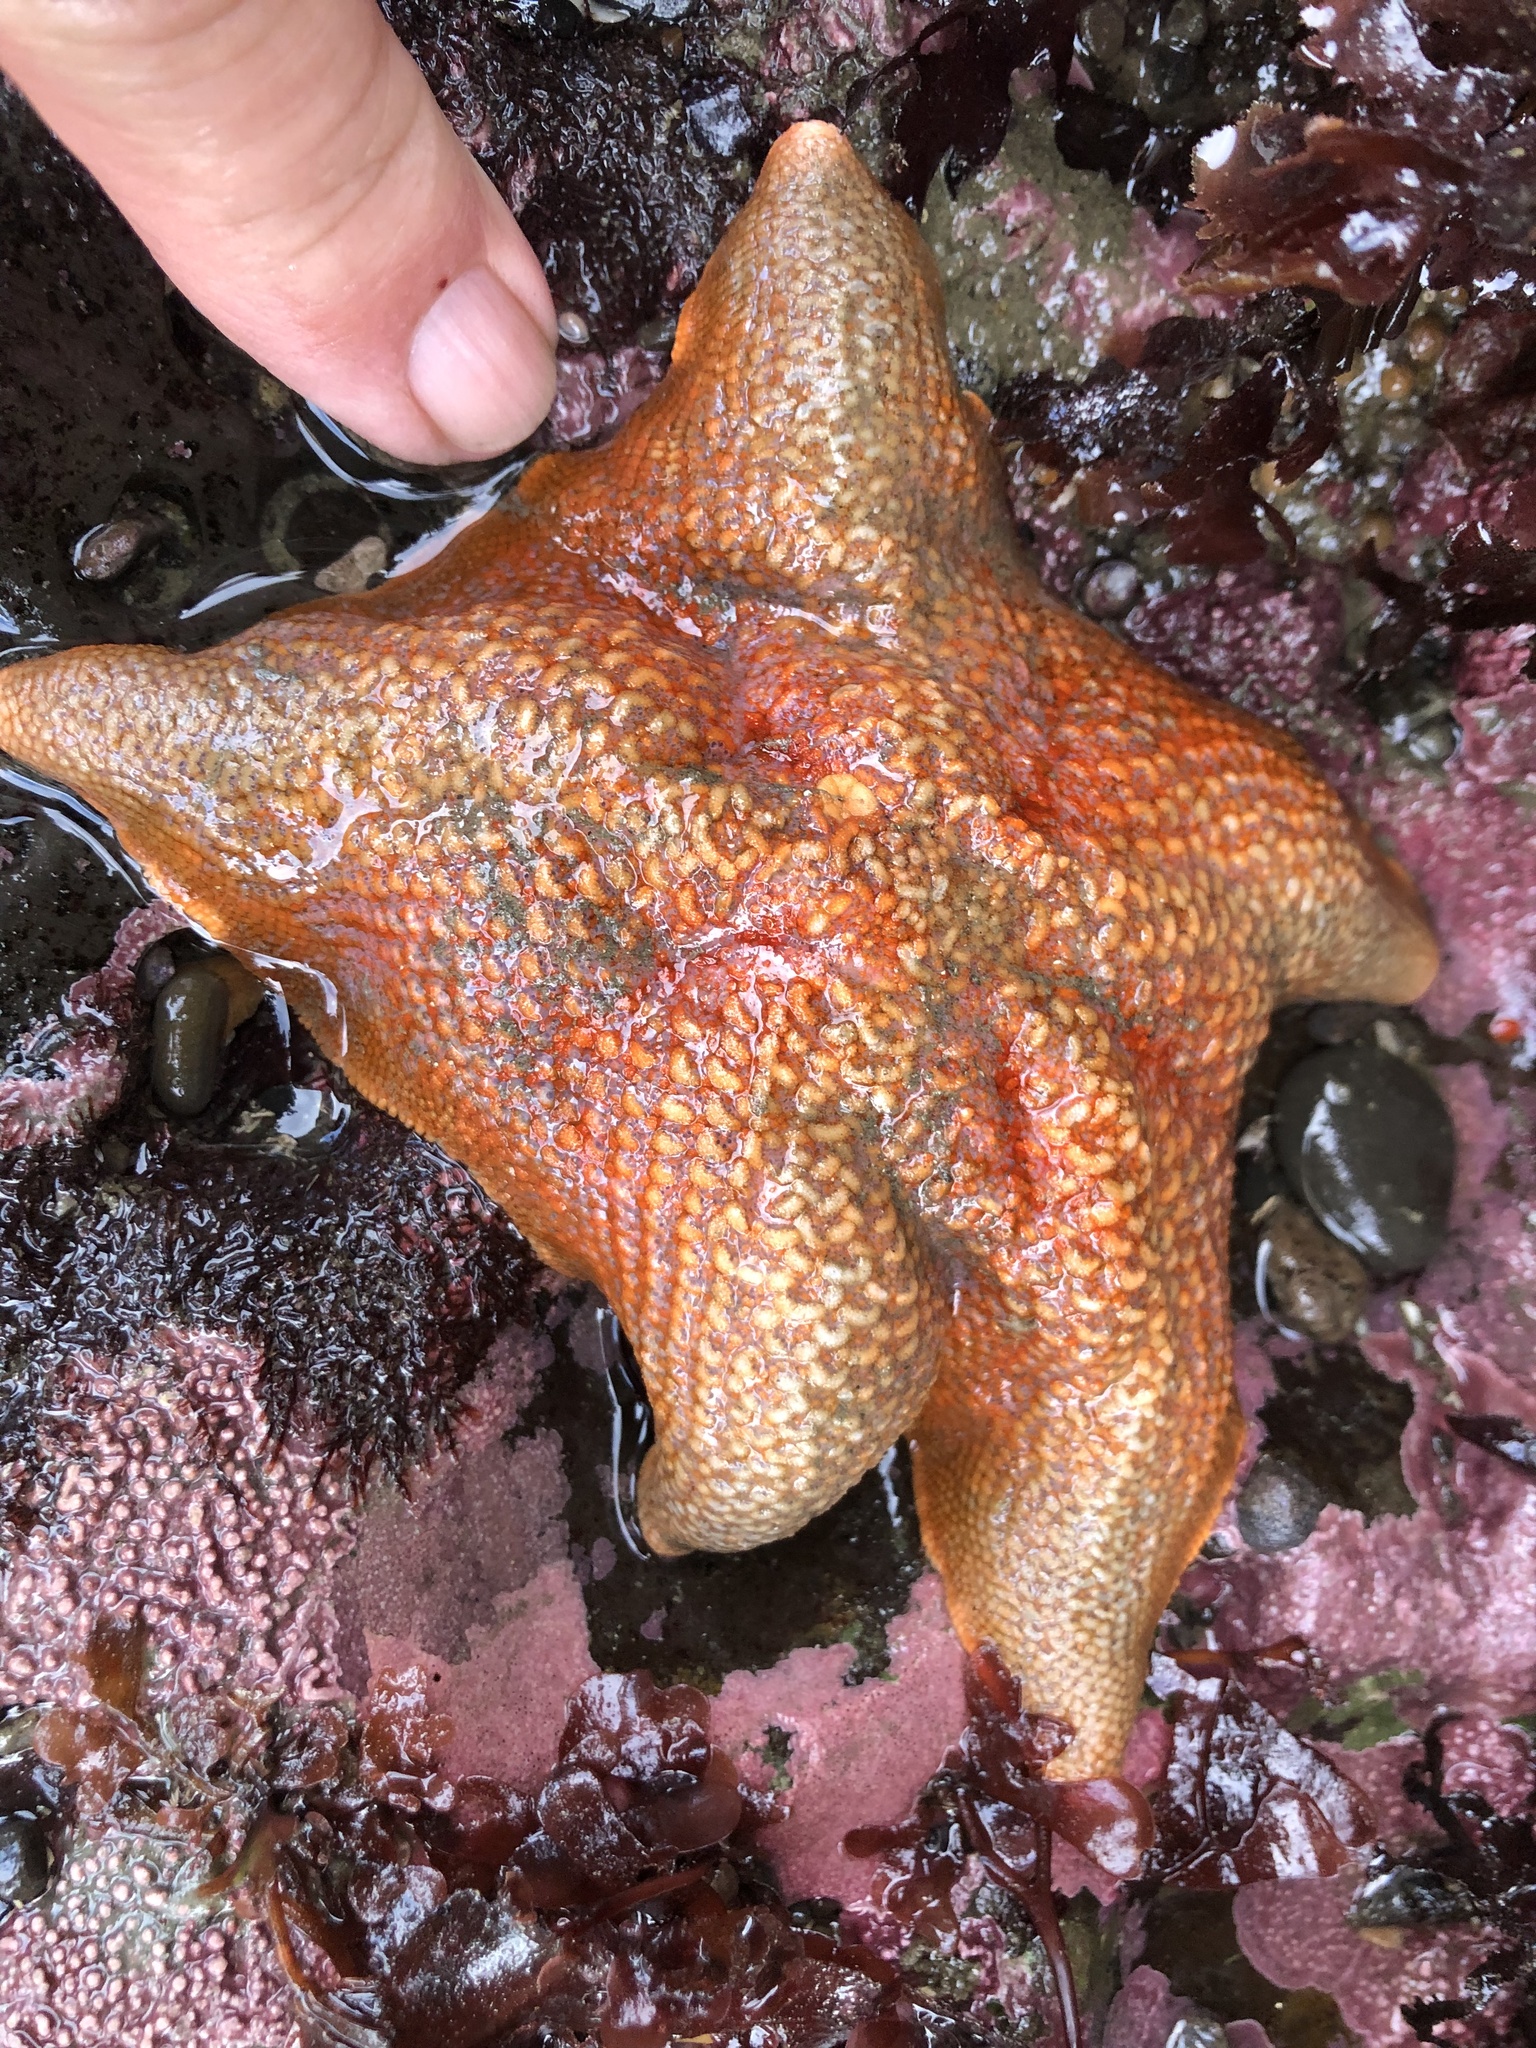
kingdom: Animalia
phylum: Echinodermata
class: Asteroidea
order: Valvatida
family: Asterinidae
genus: Patiria
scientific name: Patiria miniata
